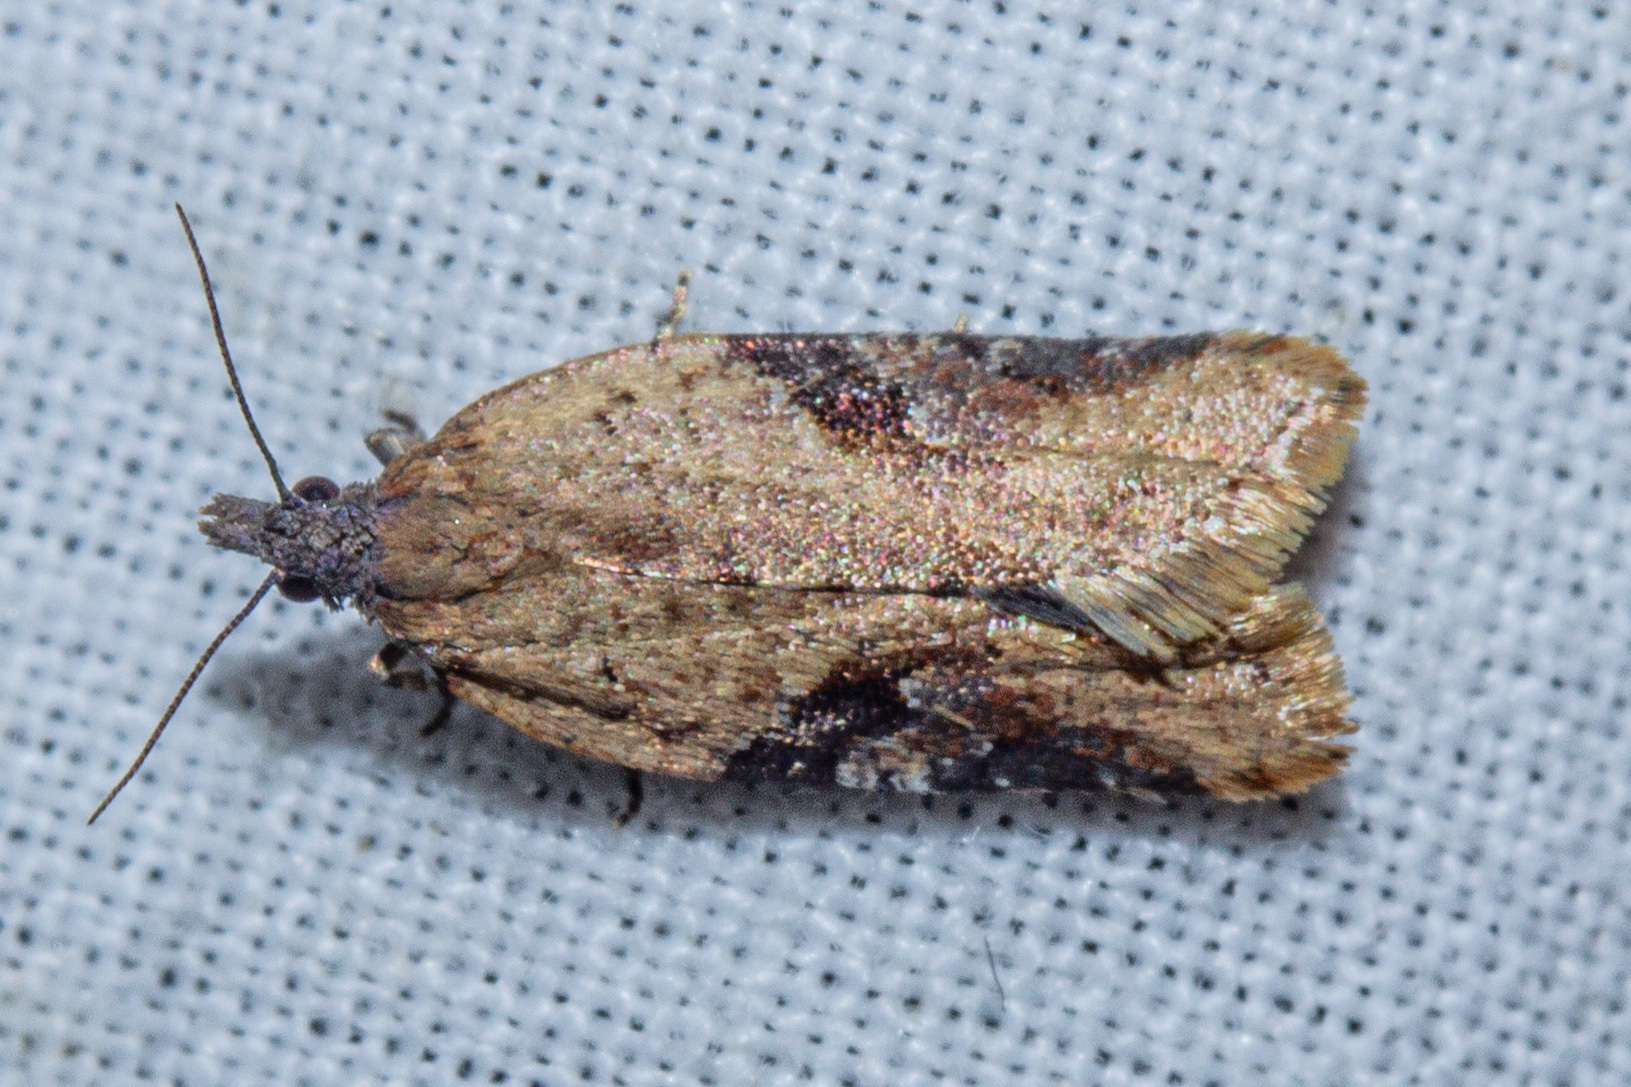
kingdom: Animalia
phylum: Arthropoda
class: Insecta
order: Lepidoptera
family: Tortricidae
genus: Capua
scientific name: Capua semiferana
